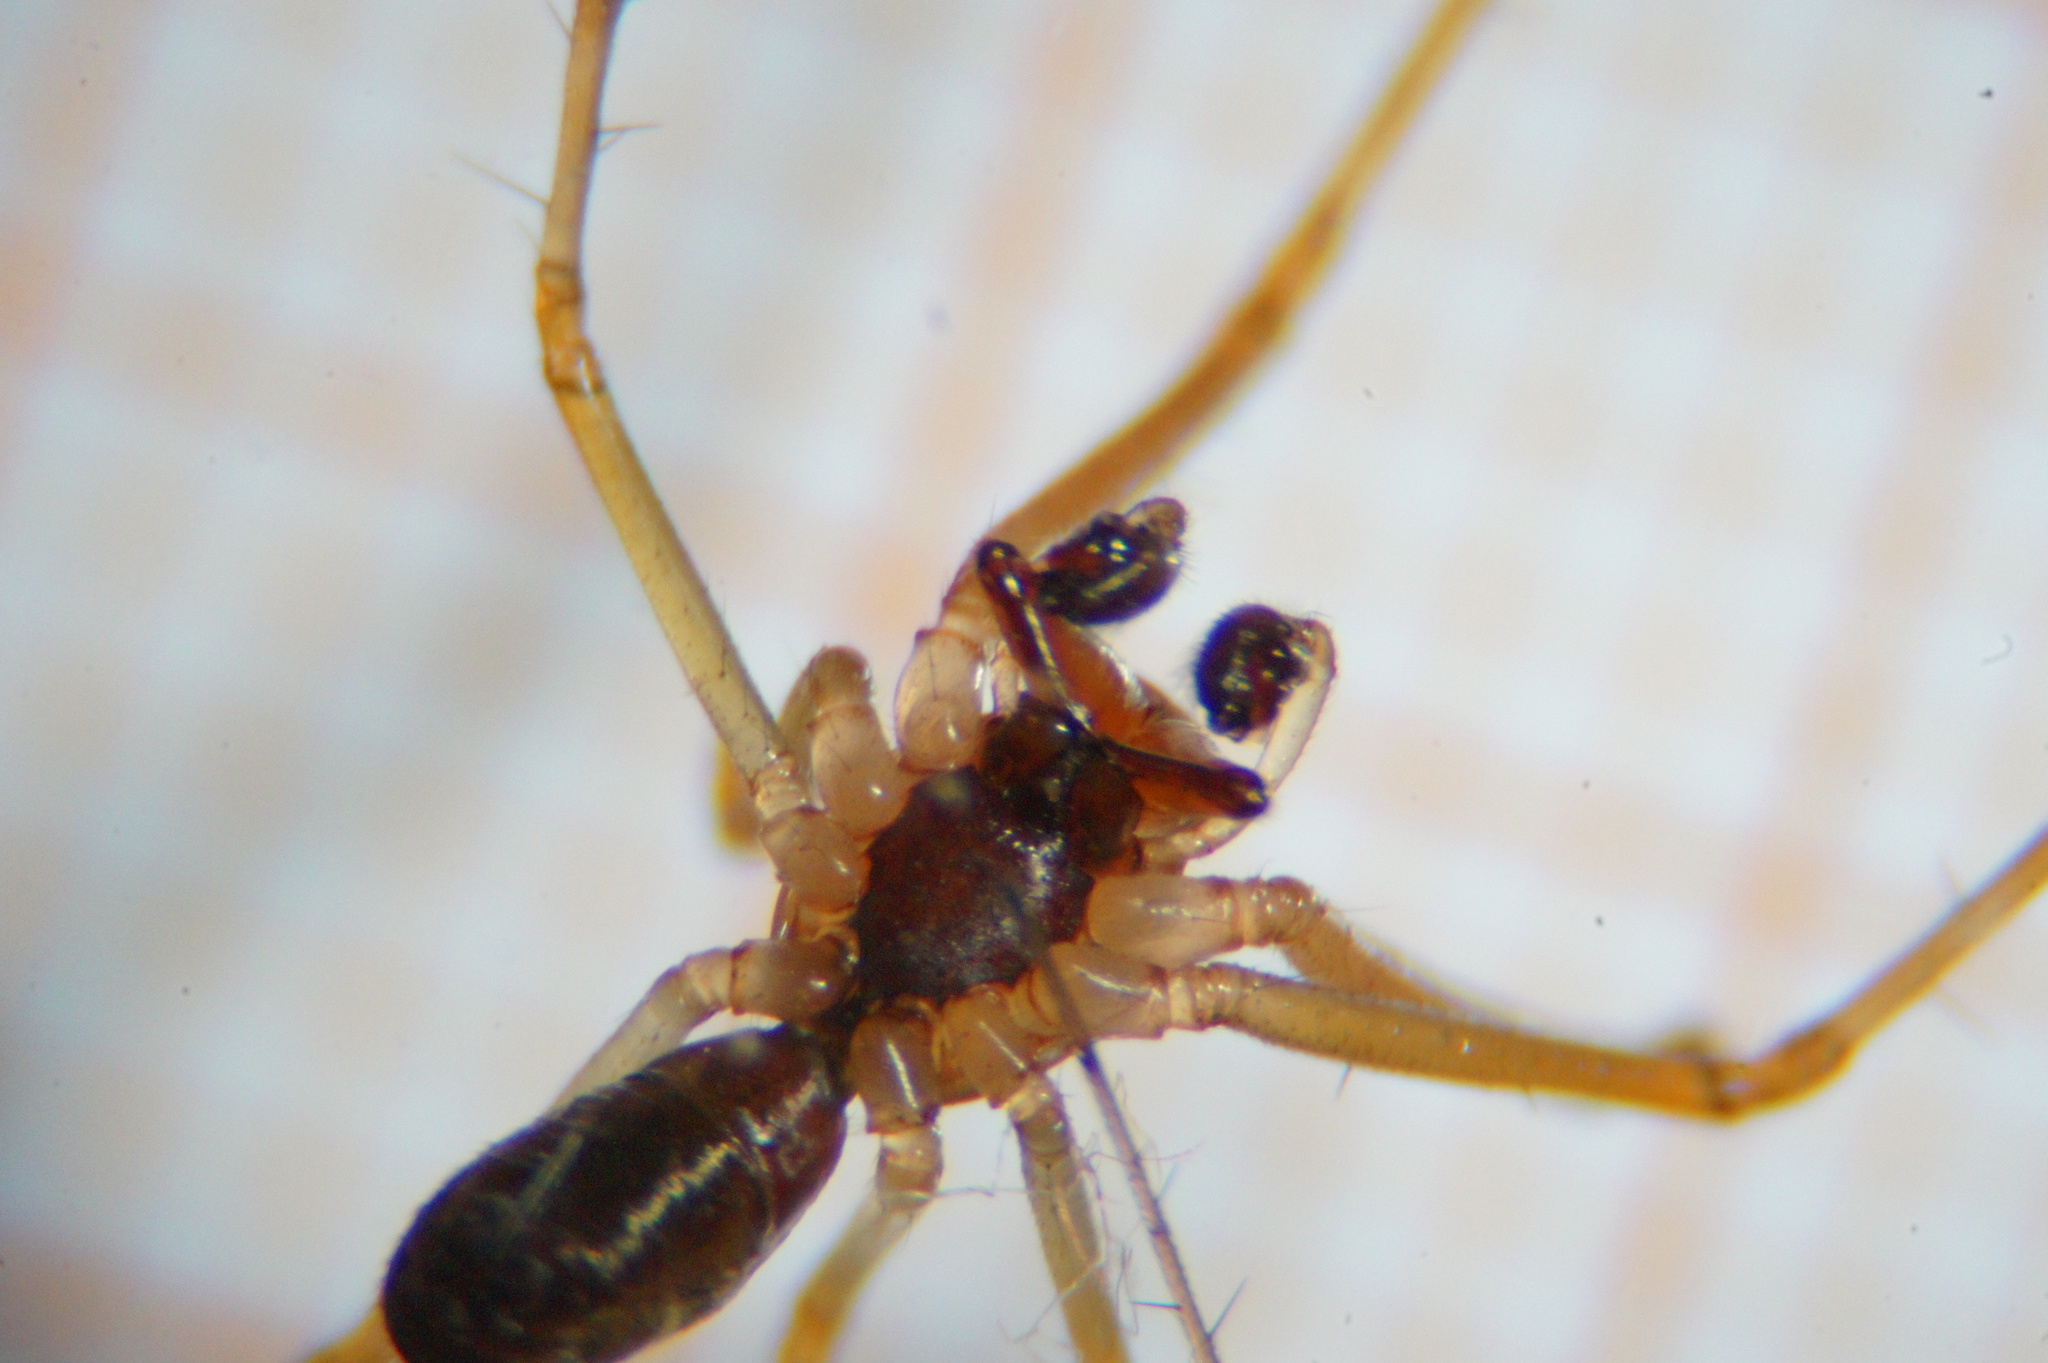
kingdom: Animalia
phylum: Arthropoda
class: Arachnida
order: Araneae
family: Linyphiidae
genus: Linyphia
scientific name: Linyphia triangularis
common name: Money spider
